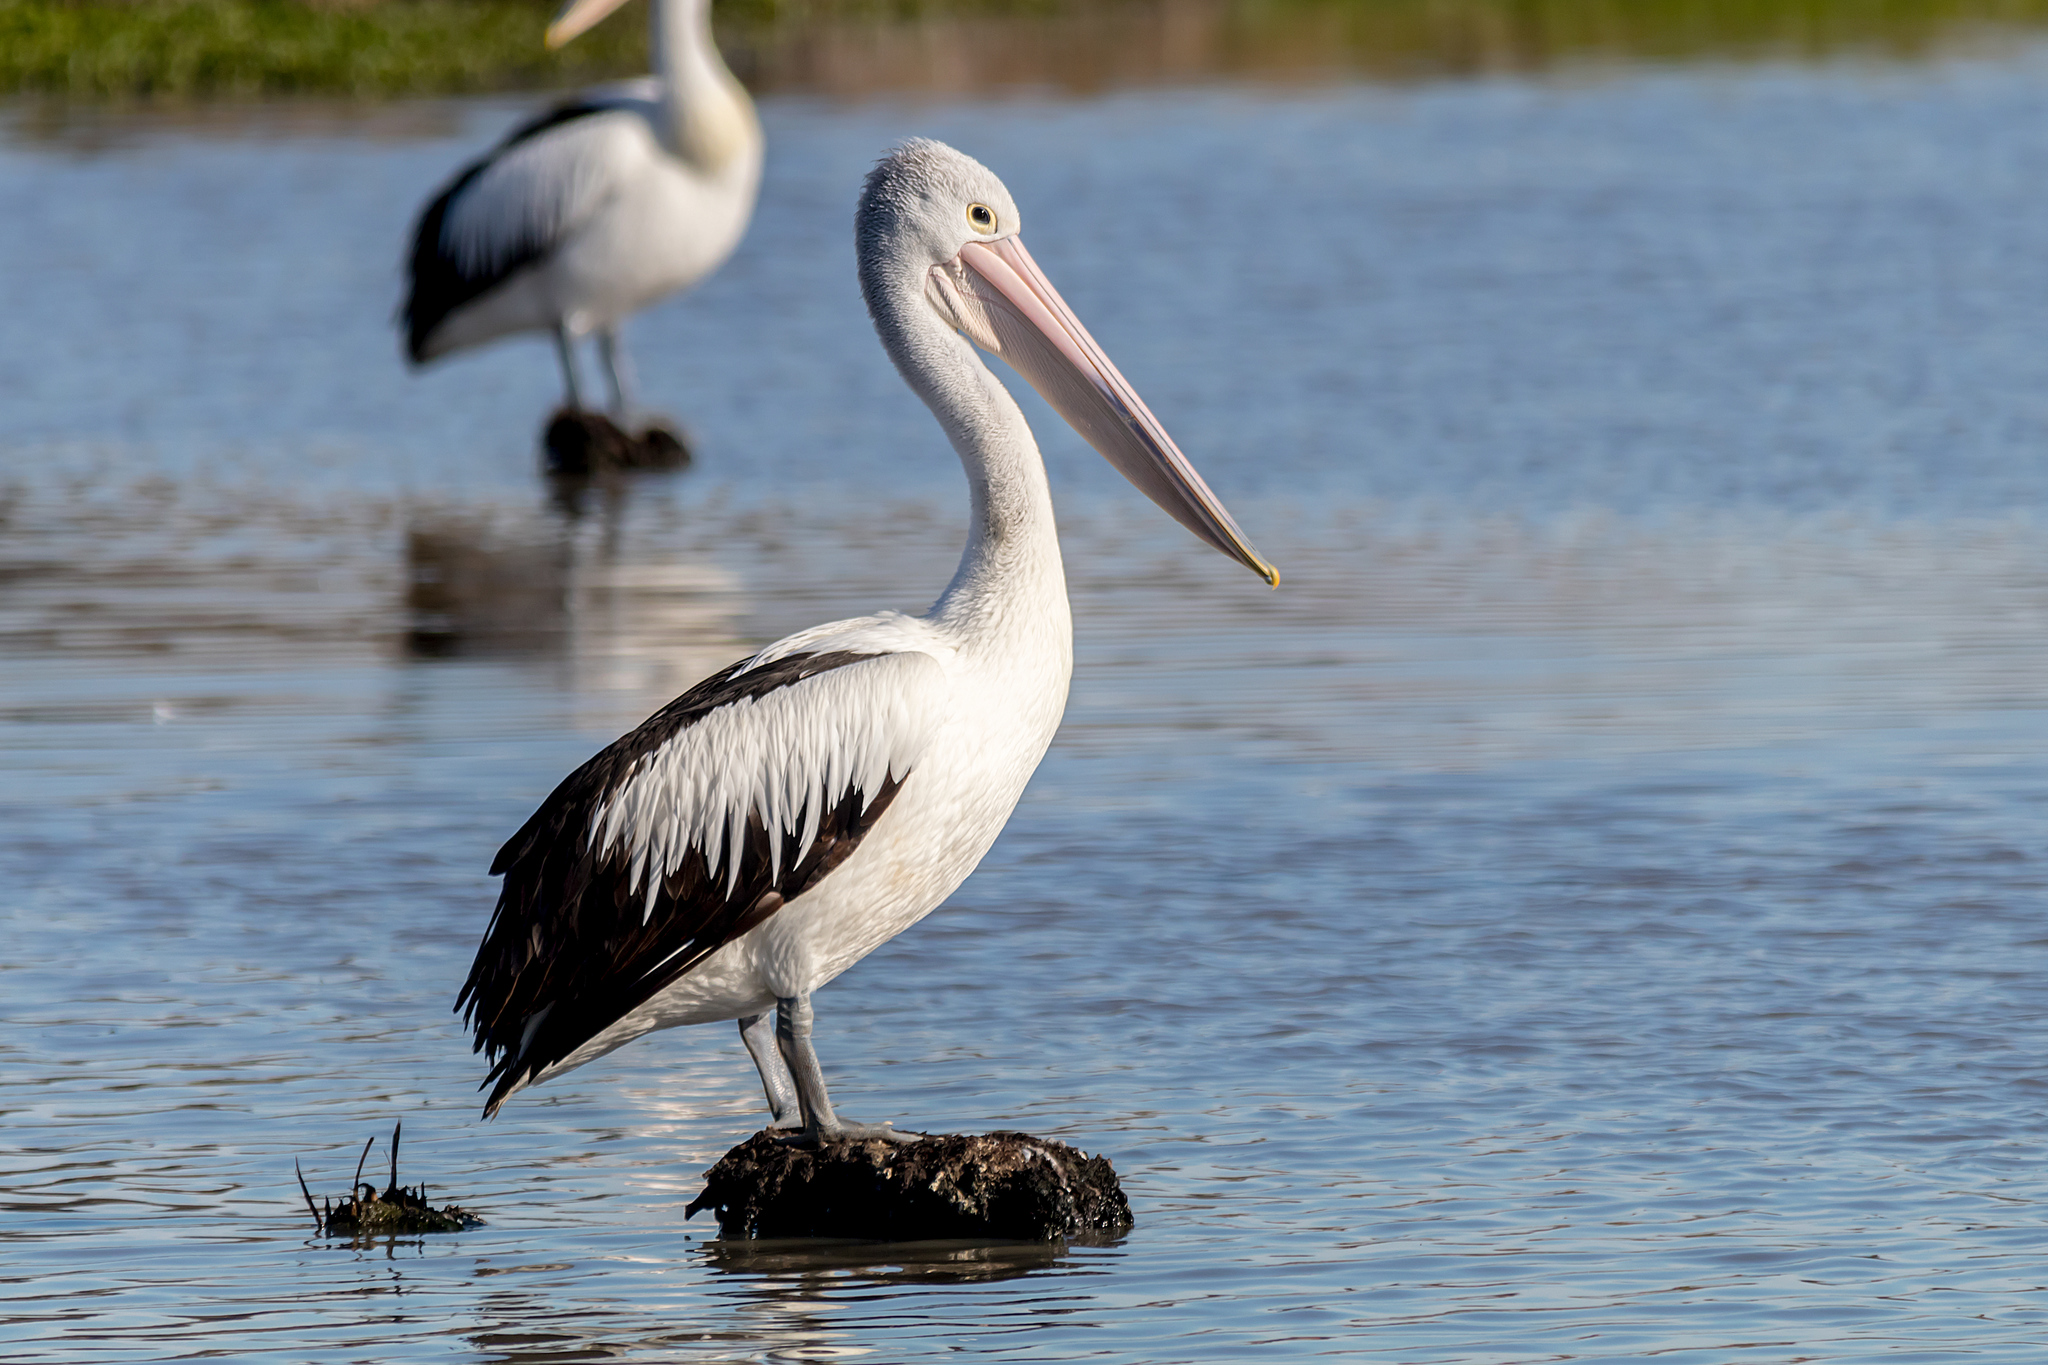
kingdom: Animalia
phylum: Chordata
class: Aves
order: Pelecaniformes
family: Pelecanidae
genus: Pelecanus
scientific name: Pelecanus conspicillatus
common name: Australian pelican
